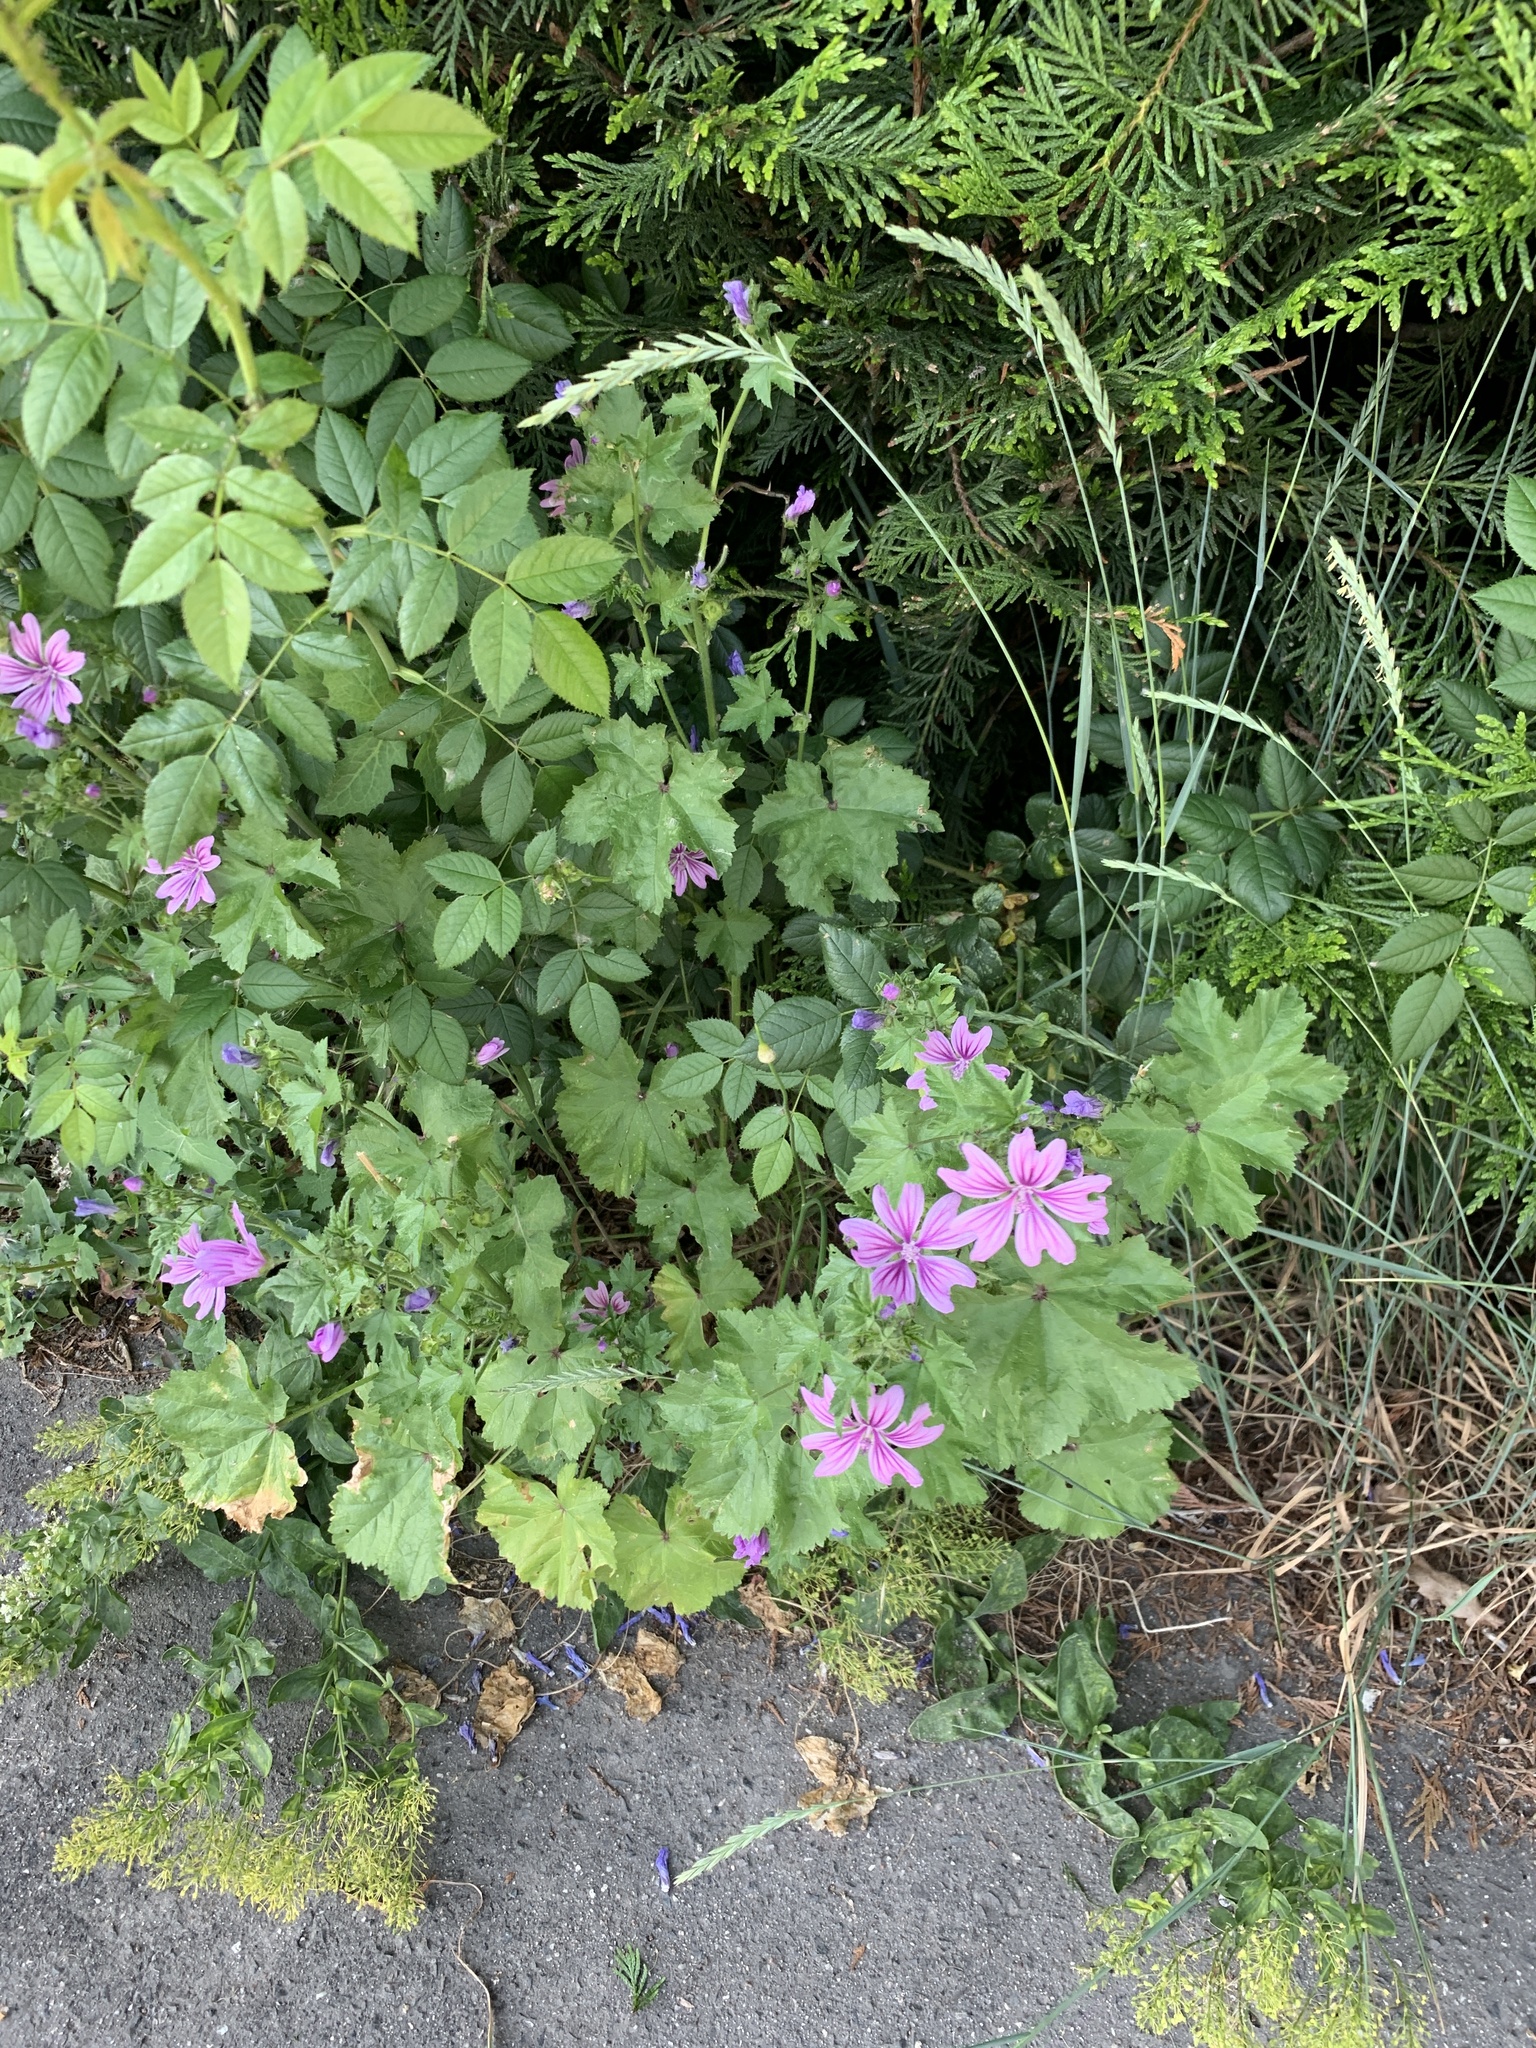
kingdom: Plantae
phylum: Tracheophyta
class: Magnoliopsida
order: Malvales
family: Malvaceae
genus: Malva
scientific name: Malva sylvestris
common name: Common mallow
